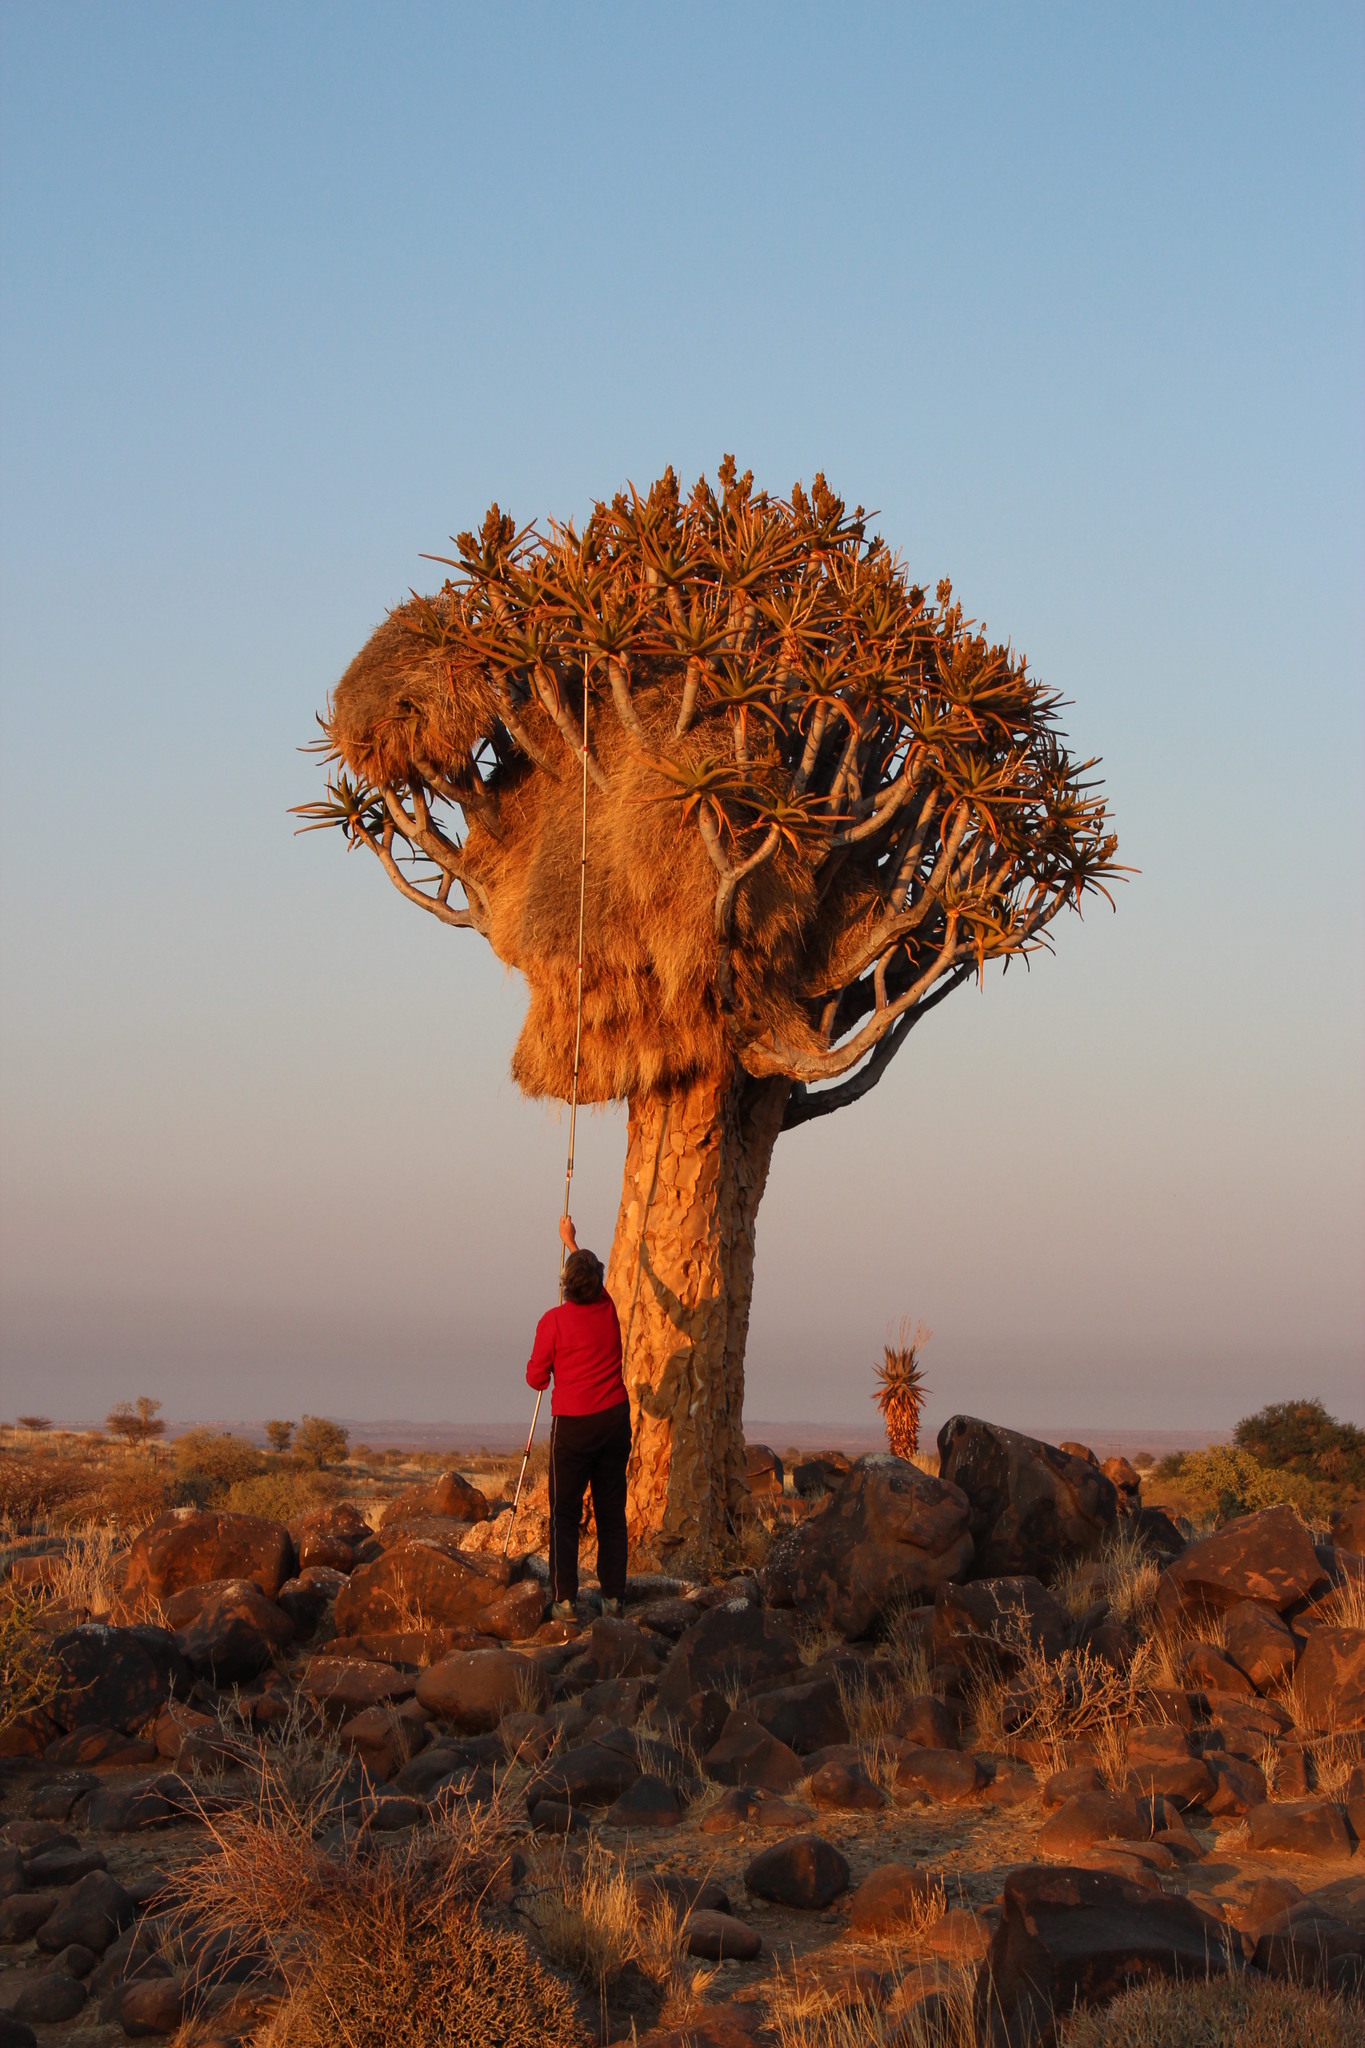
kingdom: Animalia
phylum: Chordata
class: Aves
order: Passeriformes
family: Passeridae
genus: Philetairus
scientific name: Philetairus socius
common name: Sociable weaver
